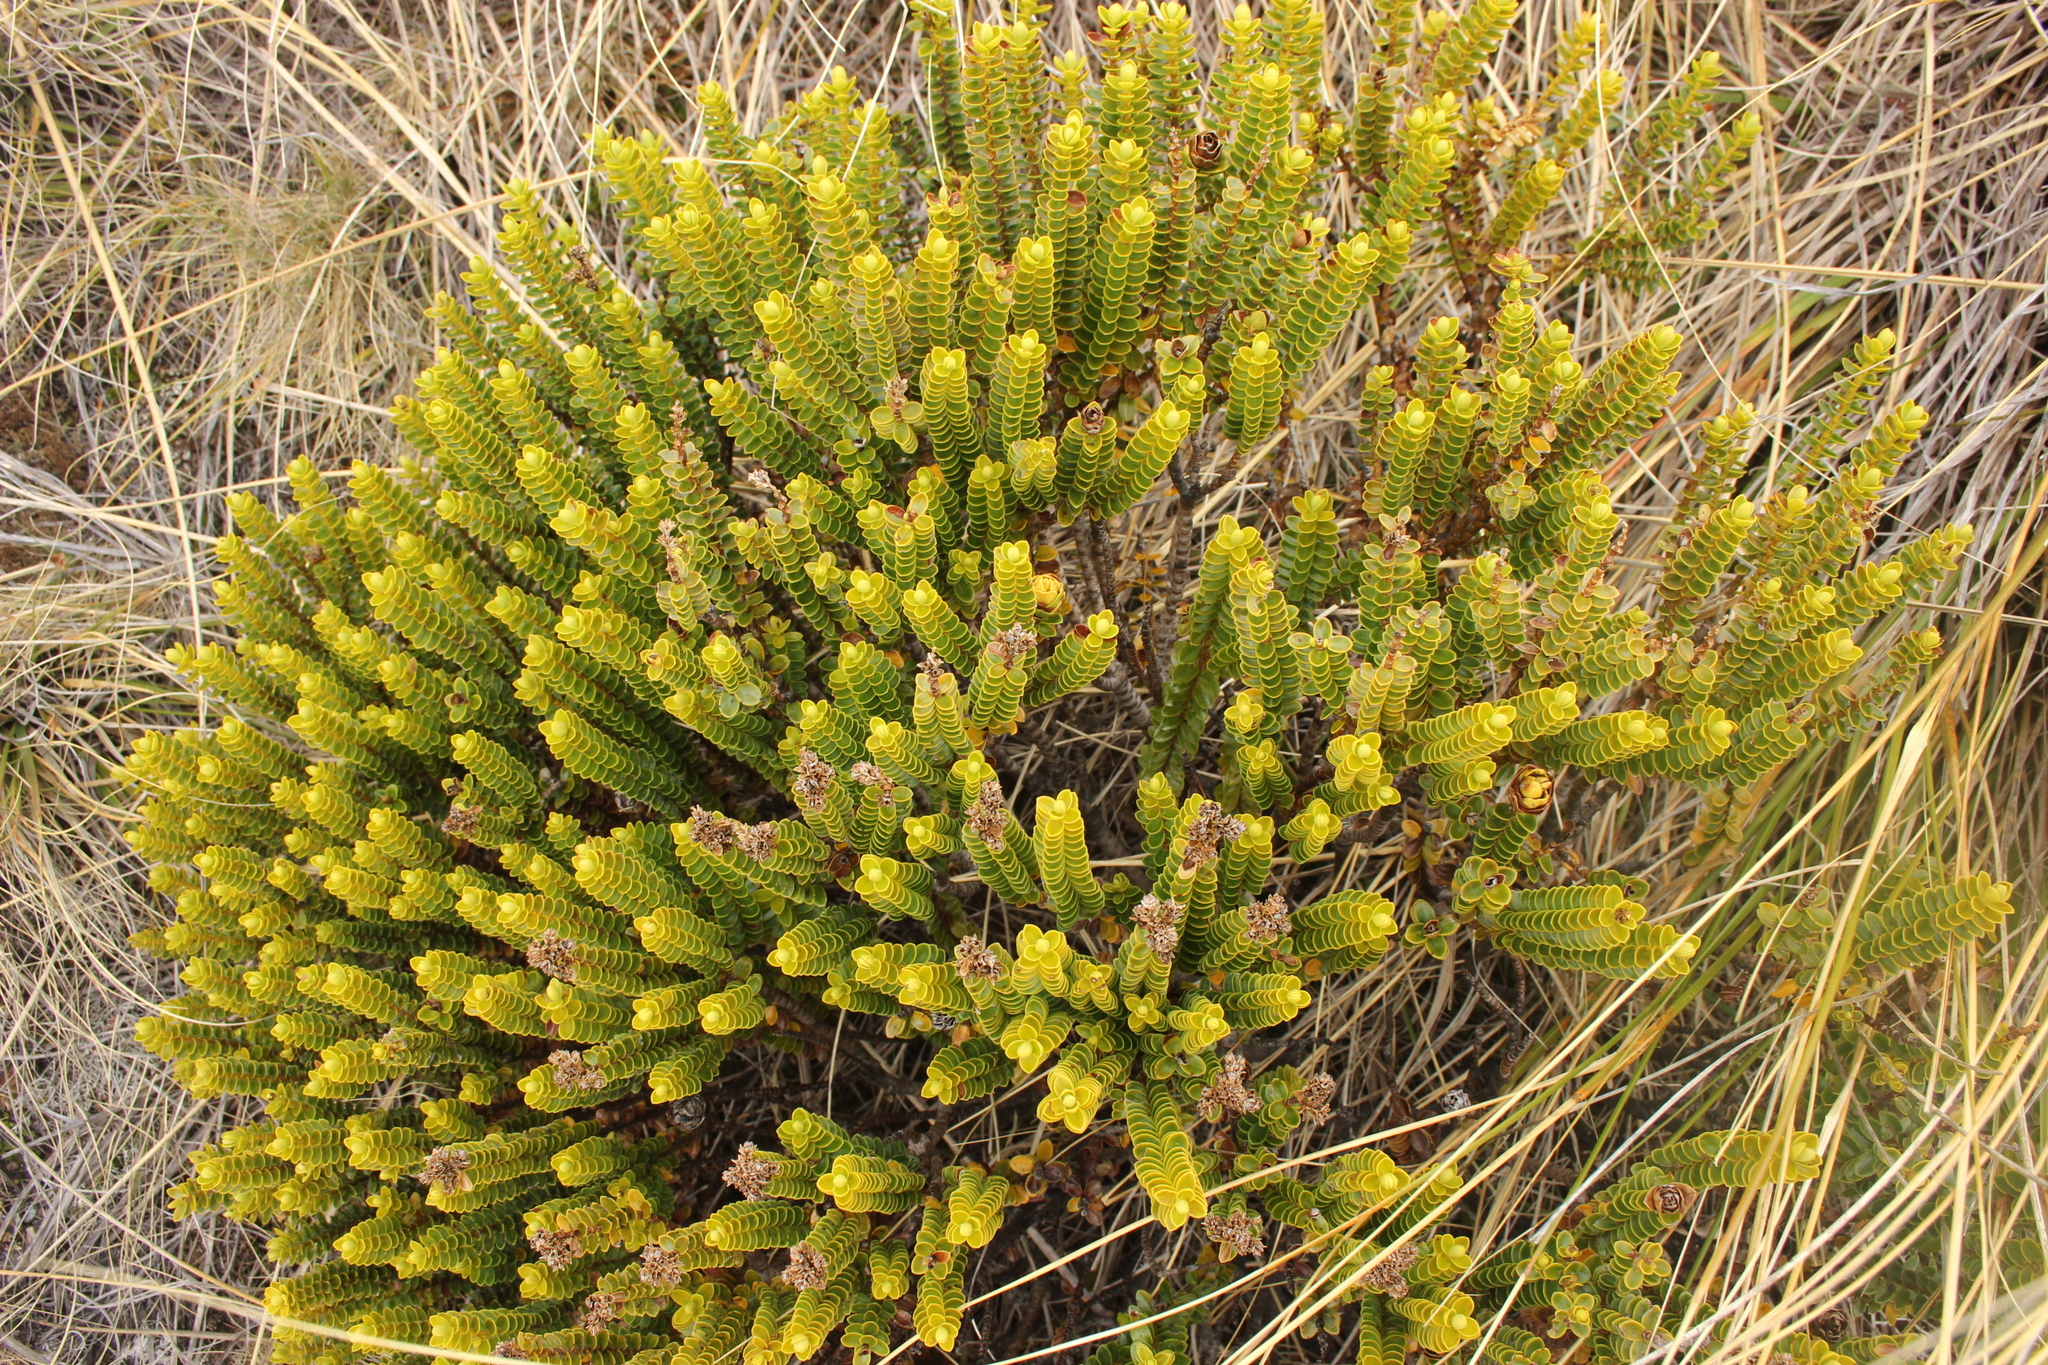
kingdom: Plantae
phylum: Tracheophyta
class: Magnoliopsida
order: Lamiales
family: Plantaginaceae
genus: Veronica
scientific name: Veronica odora
